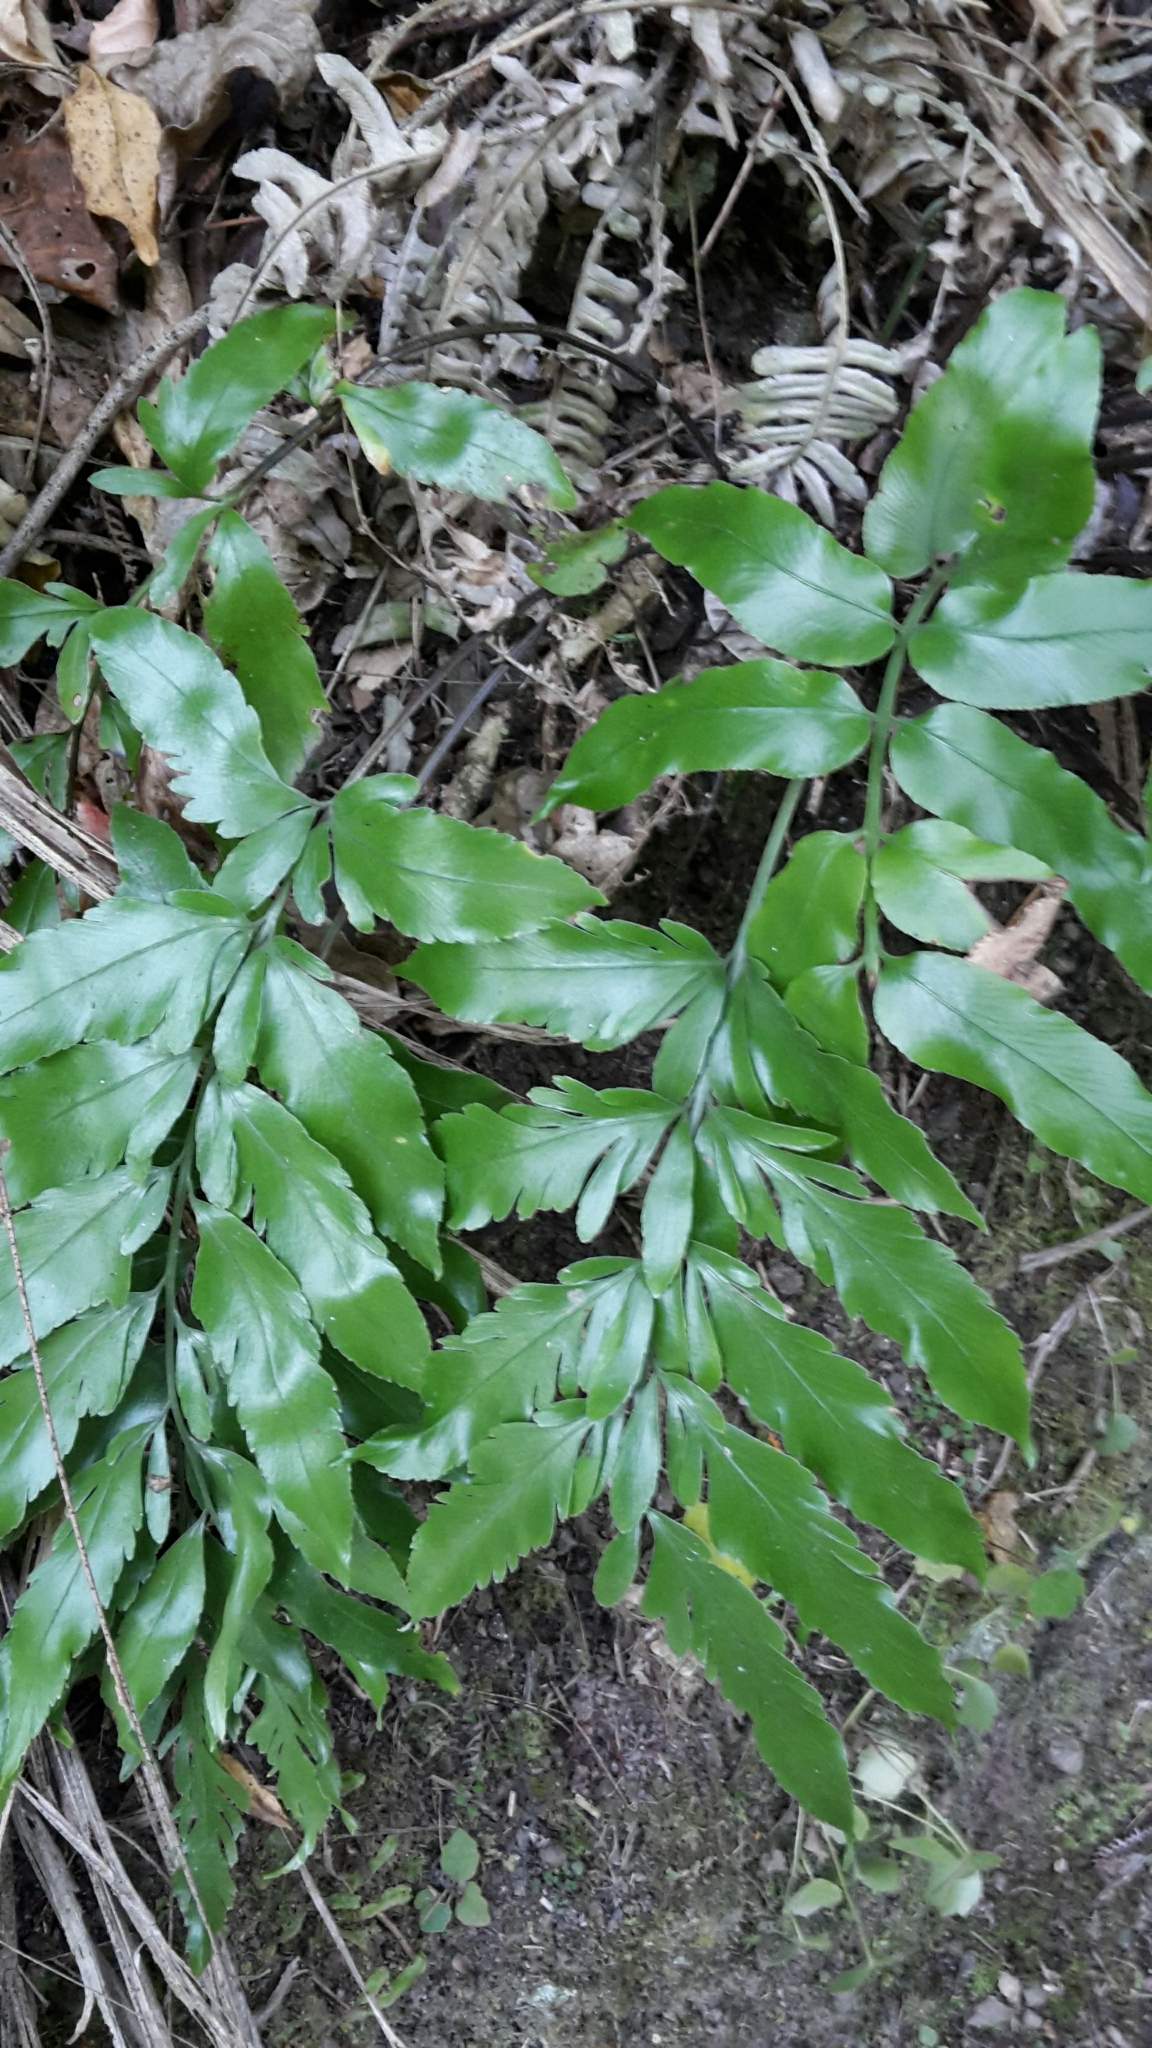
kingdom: Plantae
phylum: Tracheophyta
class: Polypodiopsida
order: Polypodiales
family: Aspleniaceae
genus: Asplenium
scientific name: Asplenium oblongifolium
